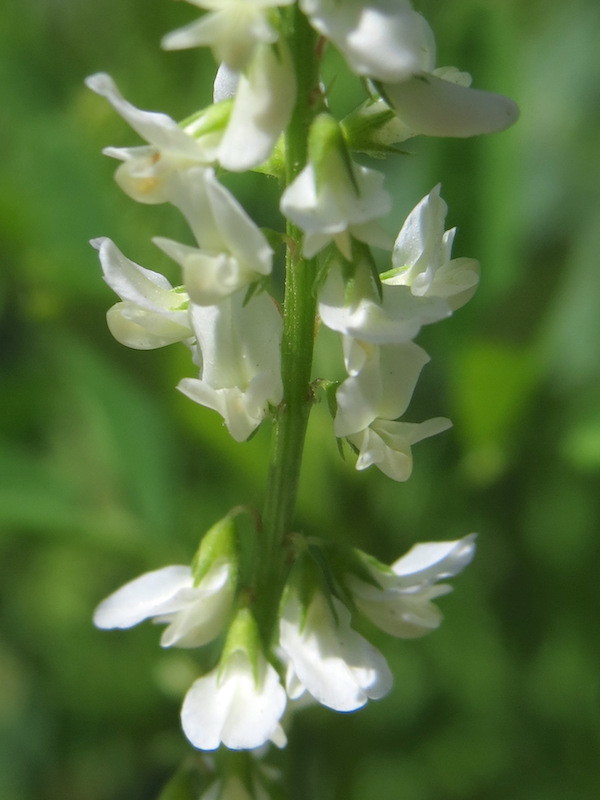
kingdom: Plantae
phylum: Tracheophyta
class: Magnoliopsida
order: Fabales
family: Fabaceae
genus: Melilotus
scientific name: Melilotus albus
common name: White melilot
